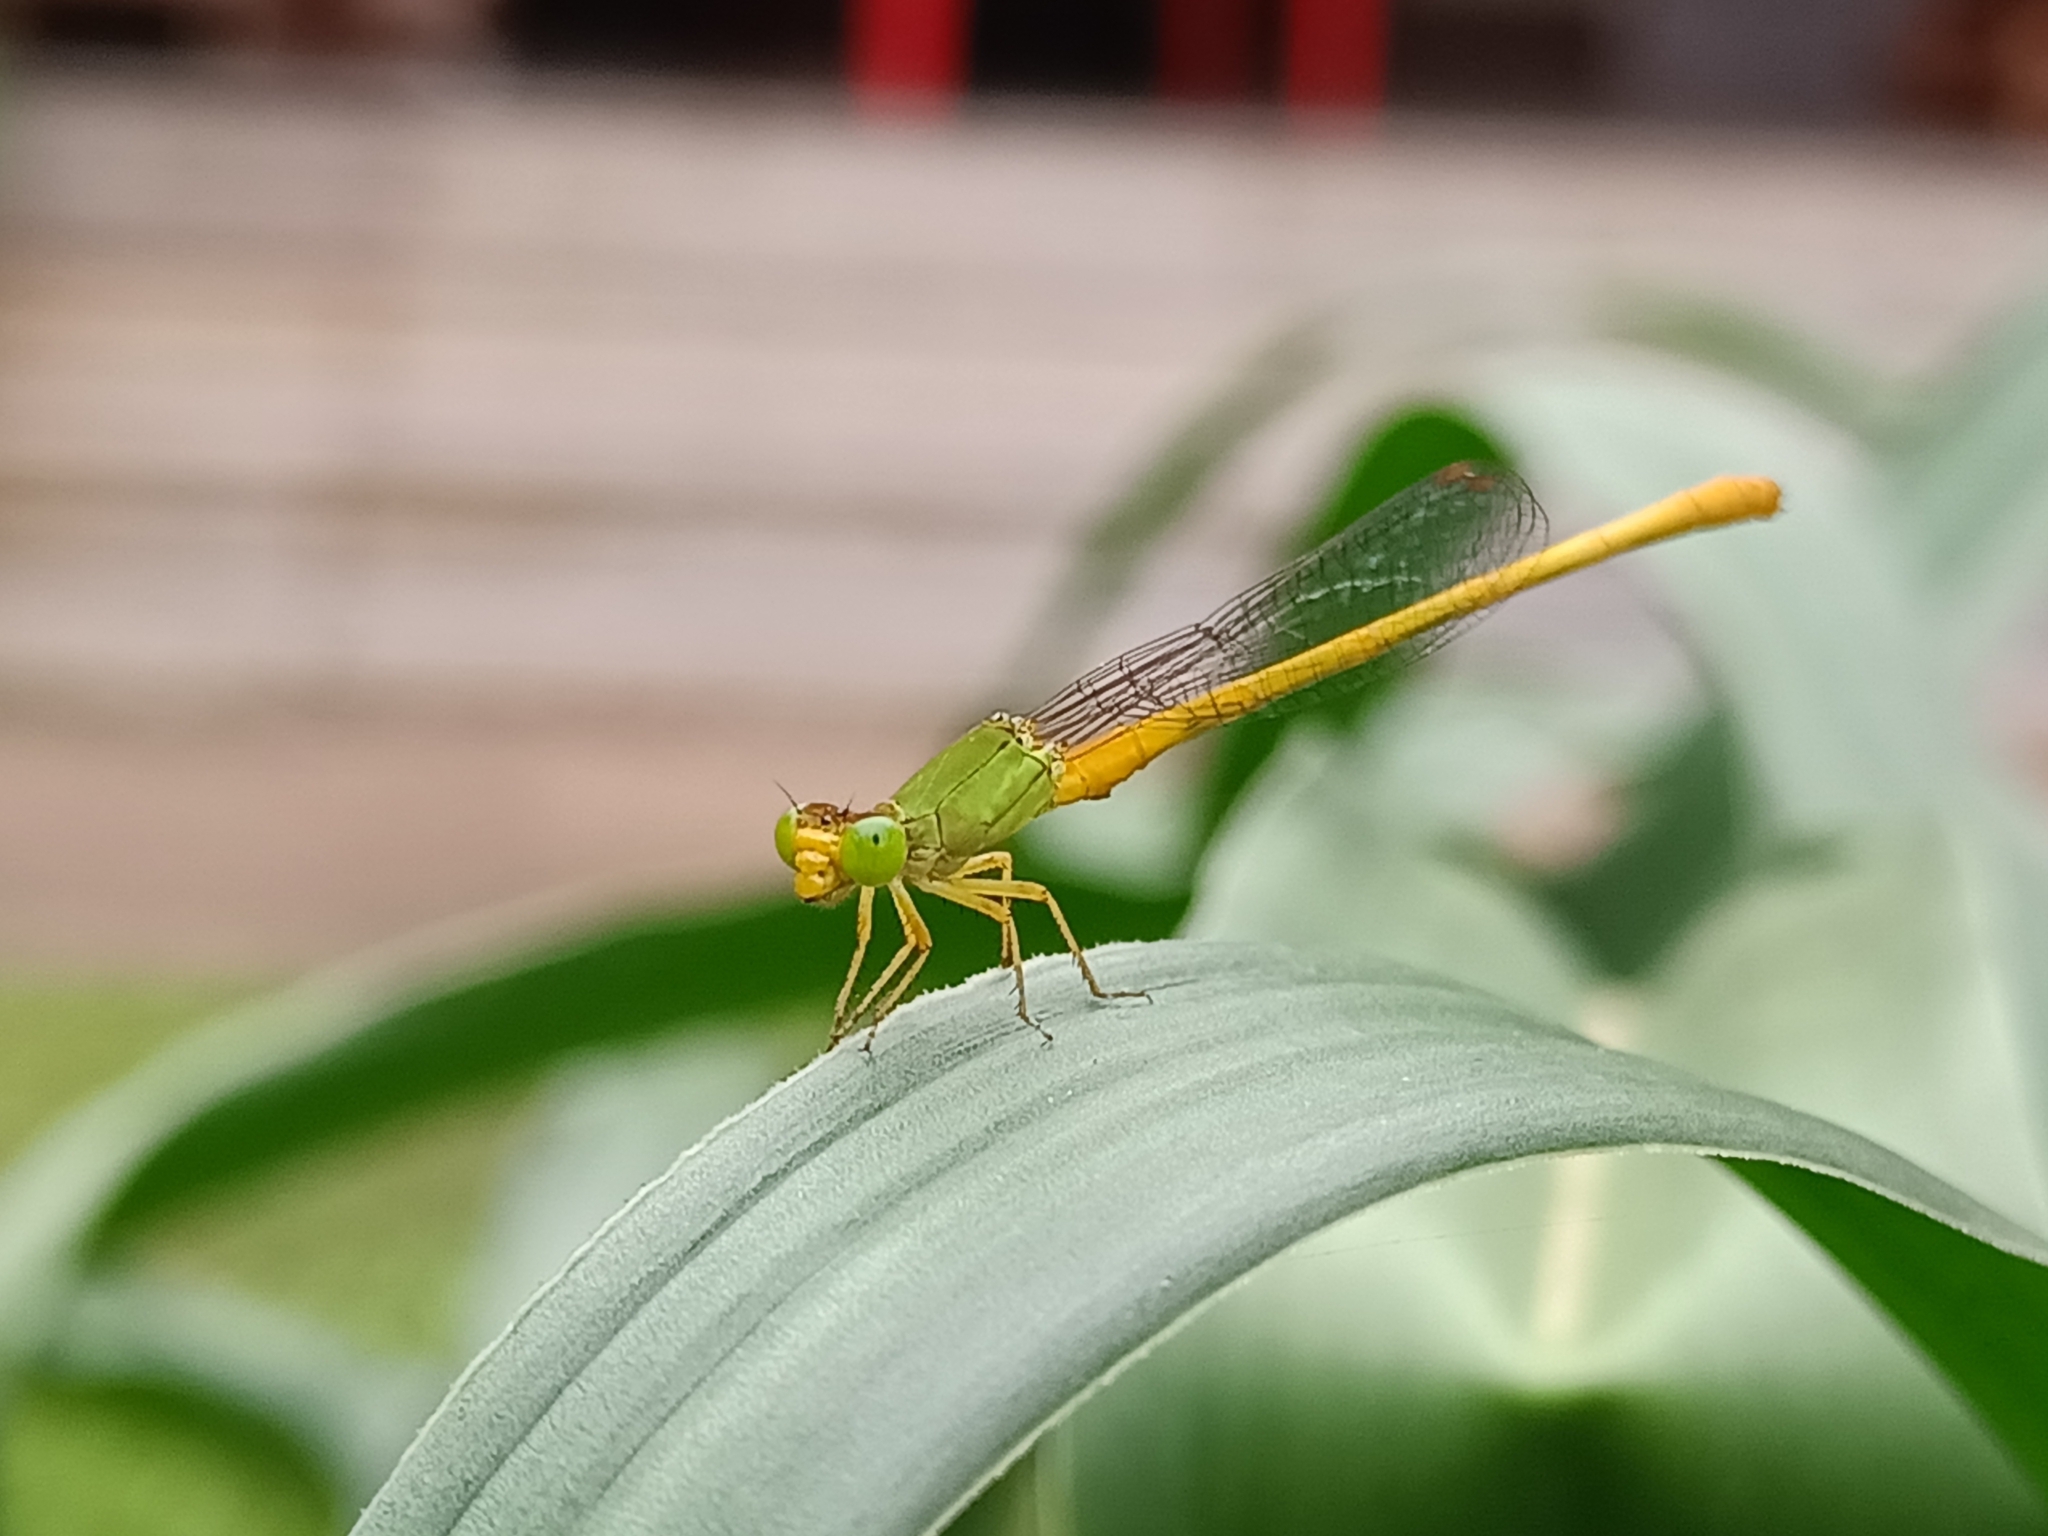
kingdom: Animalia
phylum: Arthropoda
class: Insecta
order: Odonata
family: Coenagrionidae
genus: Ceriagrion
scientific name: Ceriagrion coromandelianum
